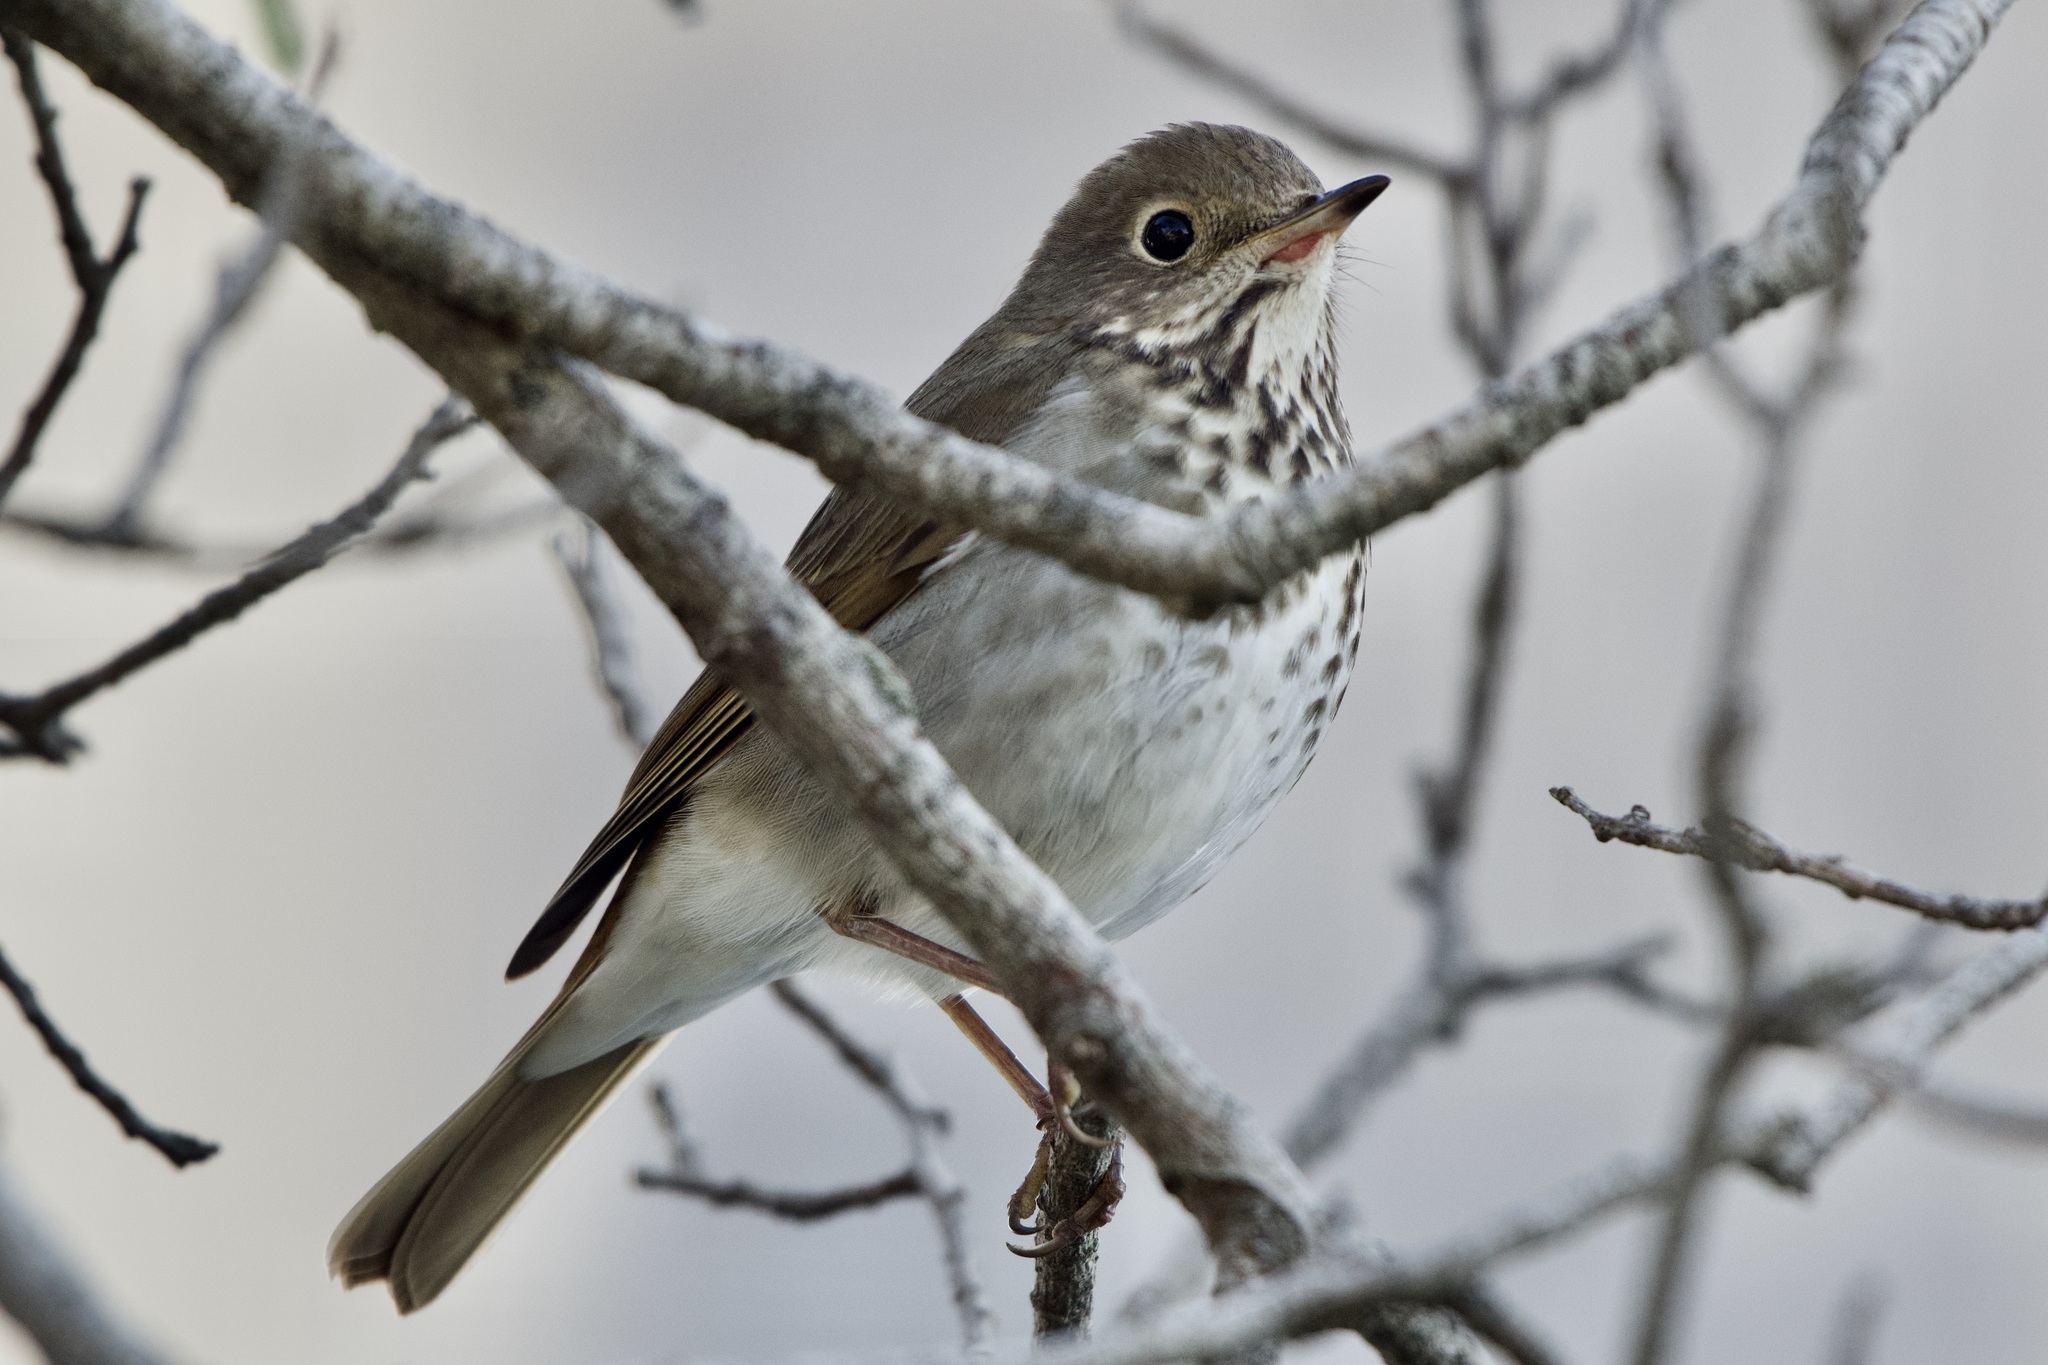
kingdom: Animalia
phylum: Chordata
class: Aves
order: Passeriformes
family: Turdidae
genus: Catharus
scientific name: Catharus guttatus
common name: Hermit thrush
